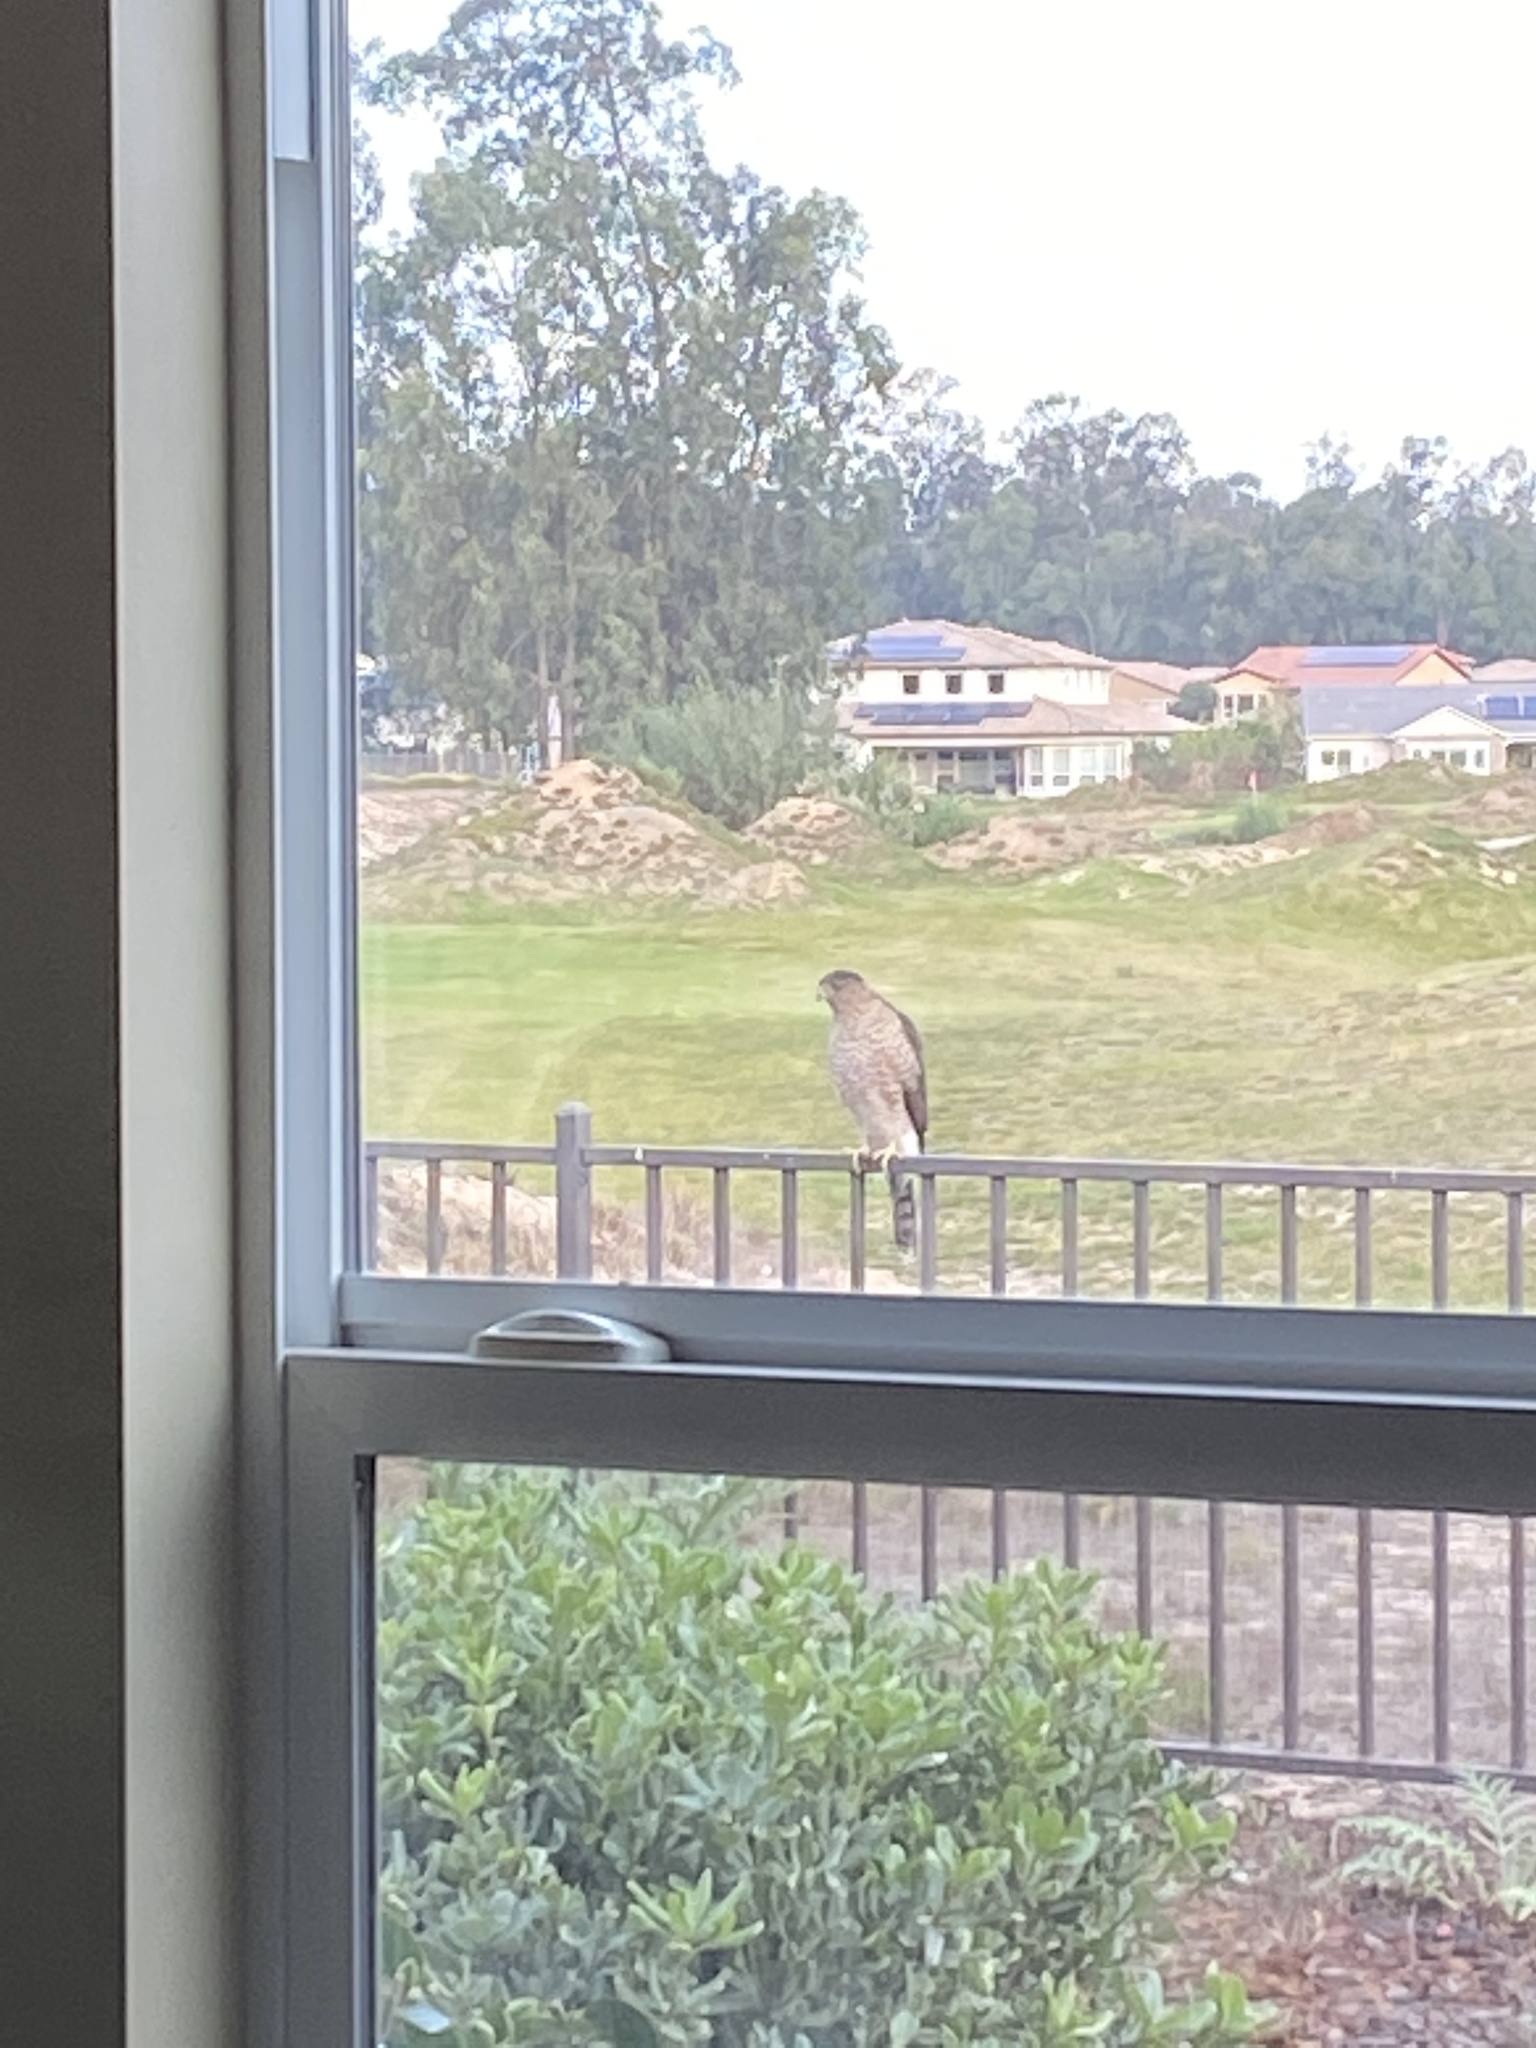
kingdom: Animalia
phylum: Chordata
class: Aves
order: Accipitriformes
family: Accipitridae
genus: Accipiter
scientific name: Accipiter cooperii
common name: Cooper's hawk
